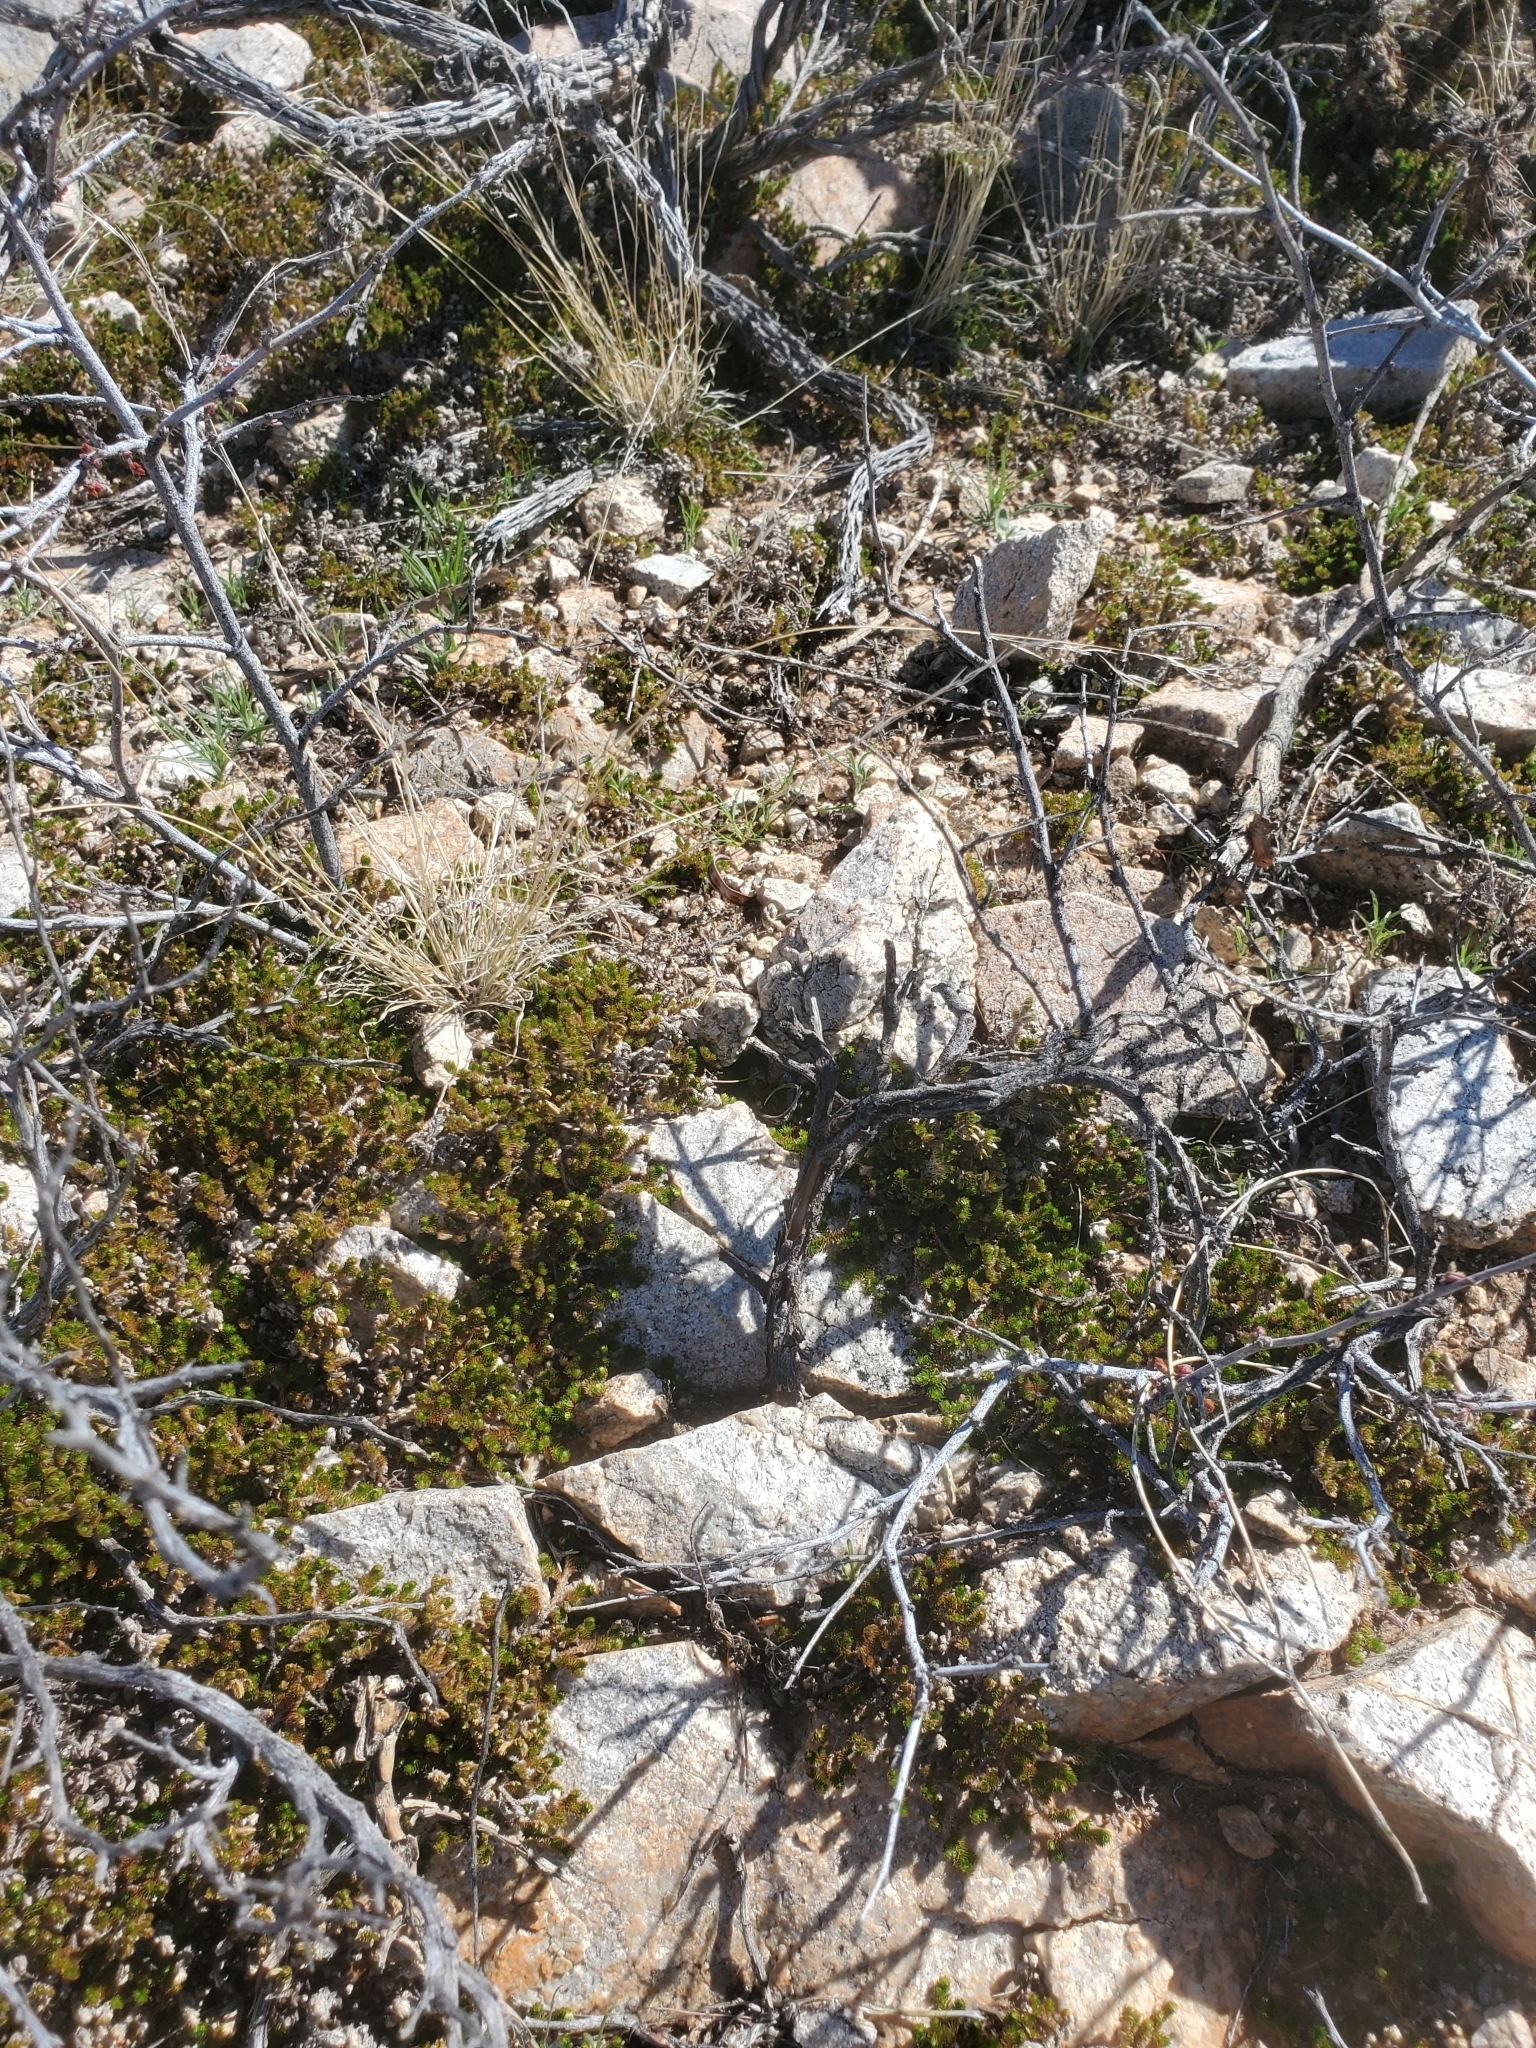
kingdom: Plantae
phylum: Tracheophyta
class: Lycopodiopsida
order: Selaginellales
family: Selaginellaceae
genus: Selaginella
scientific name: Selaginella arizonica
